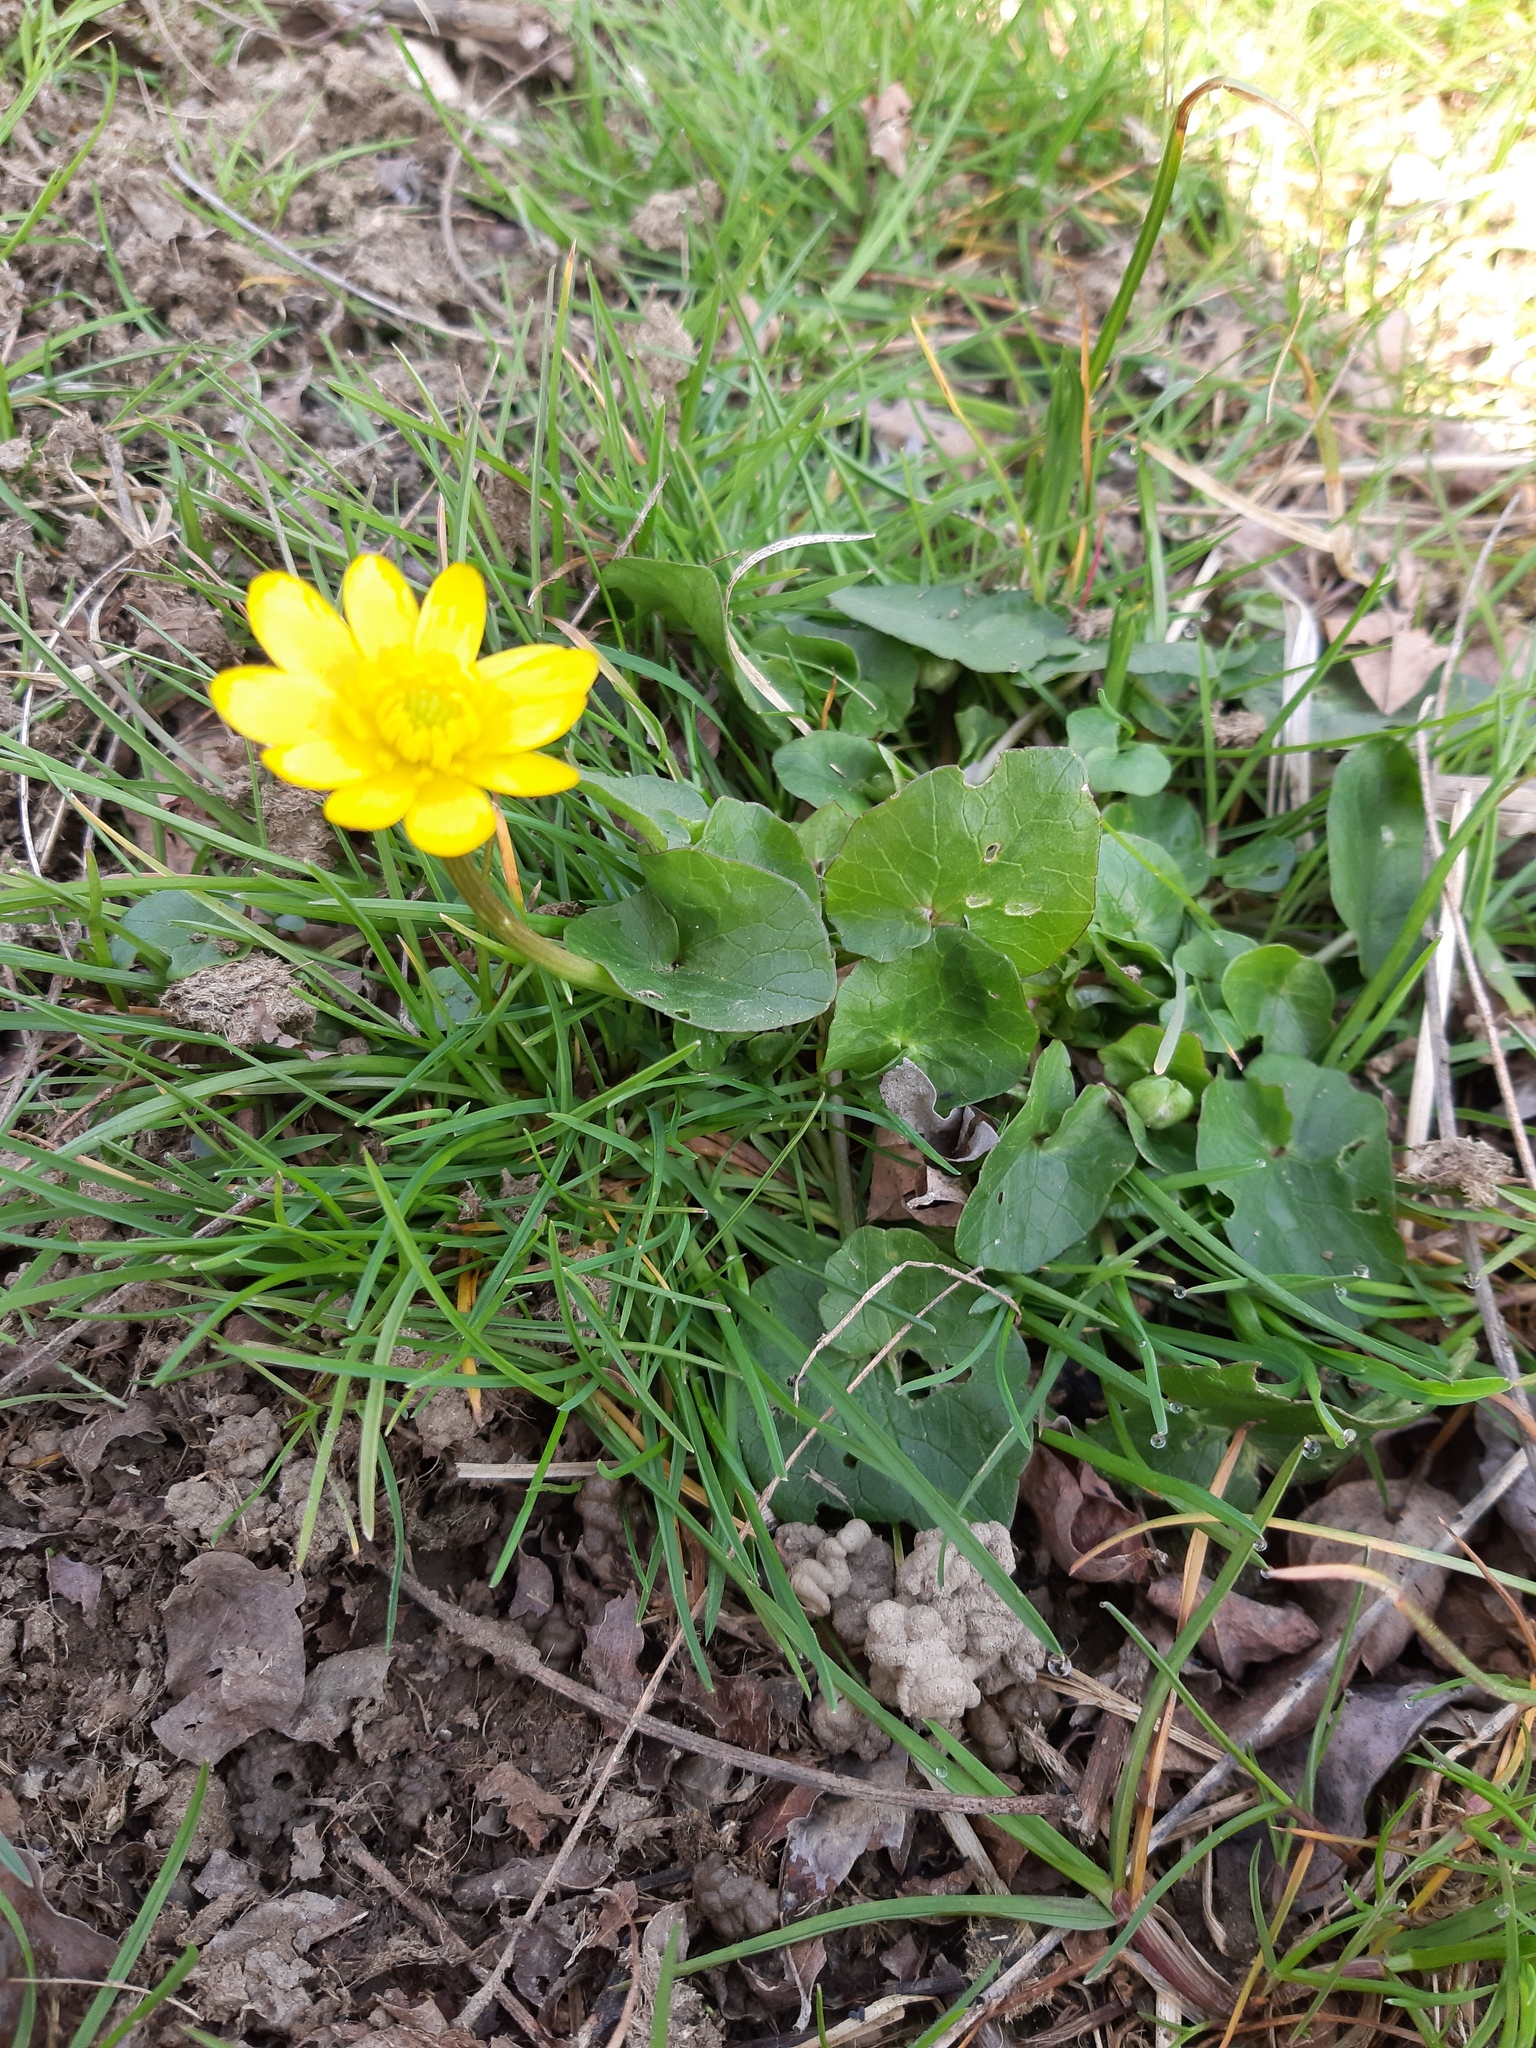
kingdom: Plantae
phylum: Tracheophyta
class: Magnoliopsida
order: Ranunculales
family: Ranunculaceae
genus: Ficaria
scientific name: Ficaria verna
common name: Lesser celandine
